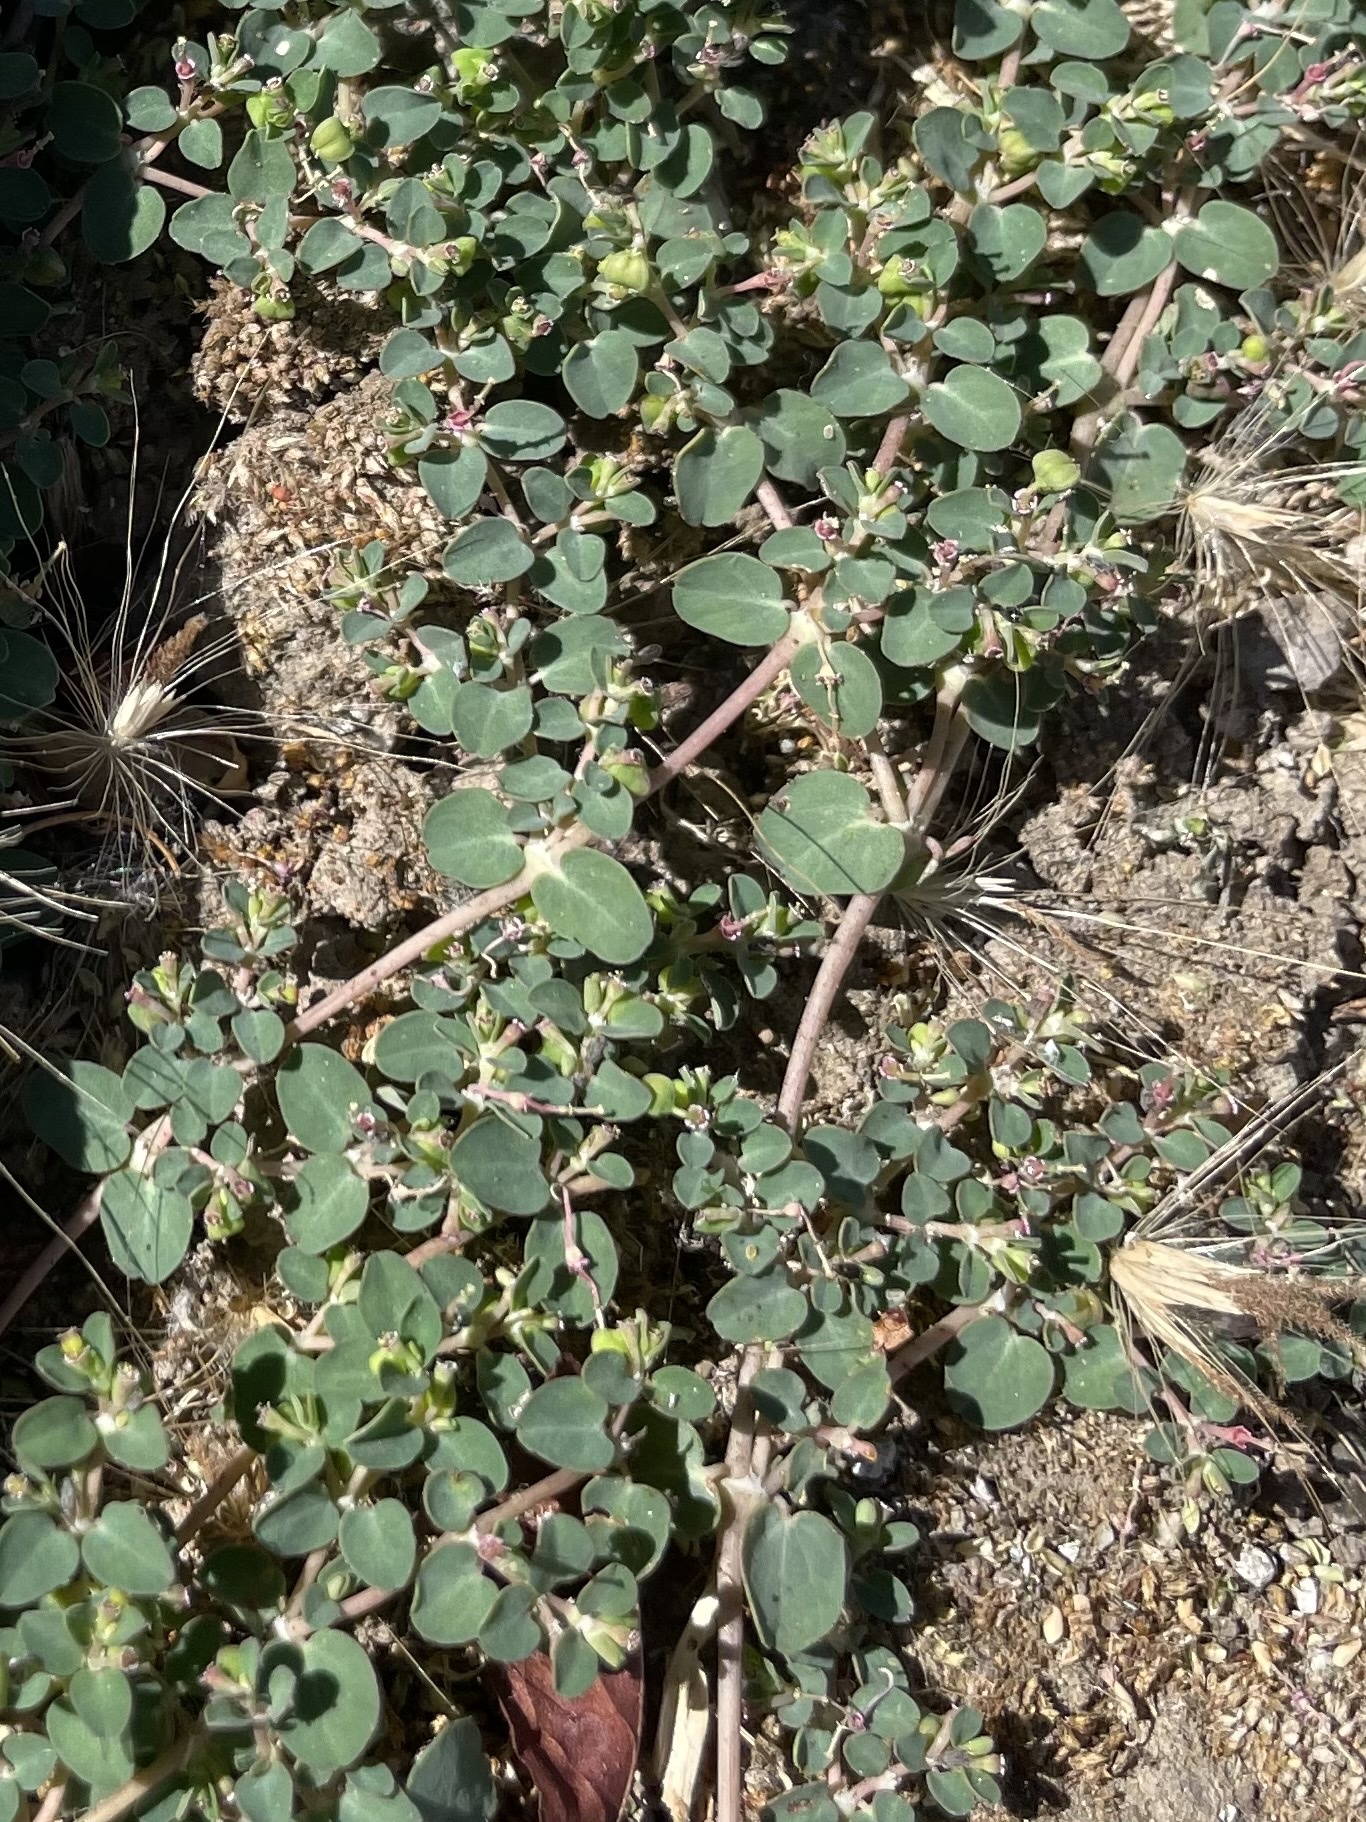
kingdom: Plantae
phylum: Tracheophyta
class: Magnoliopsida
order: Malpighiales
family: Euphorbiaceae
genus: Euphorbia
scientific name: Euphorbia serpens
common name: Matted sandmat
